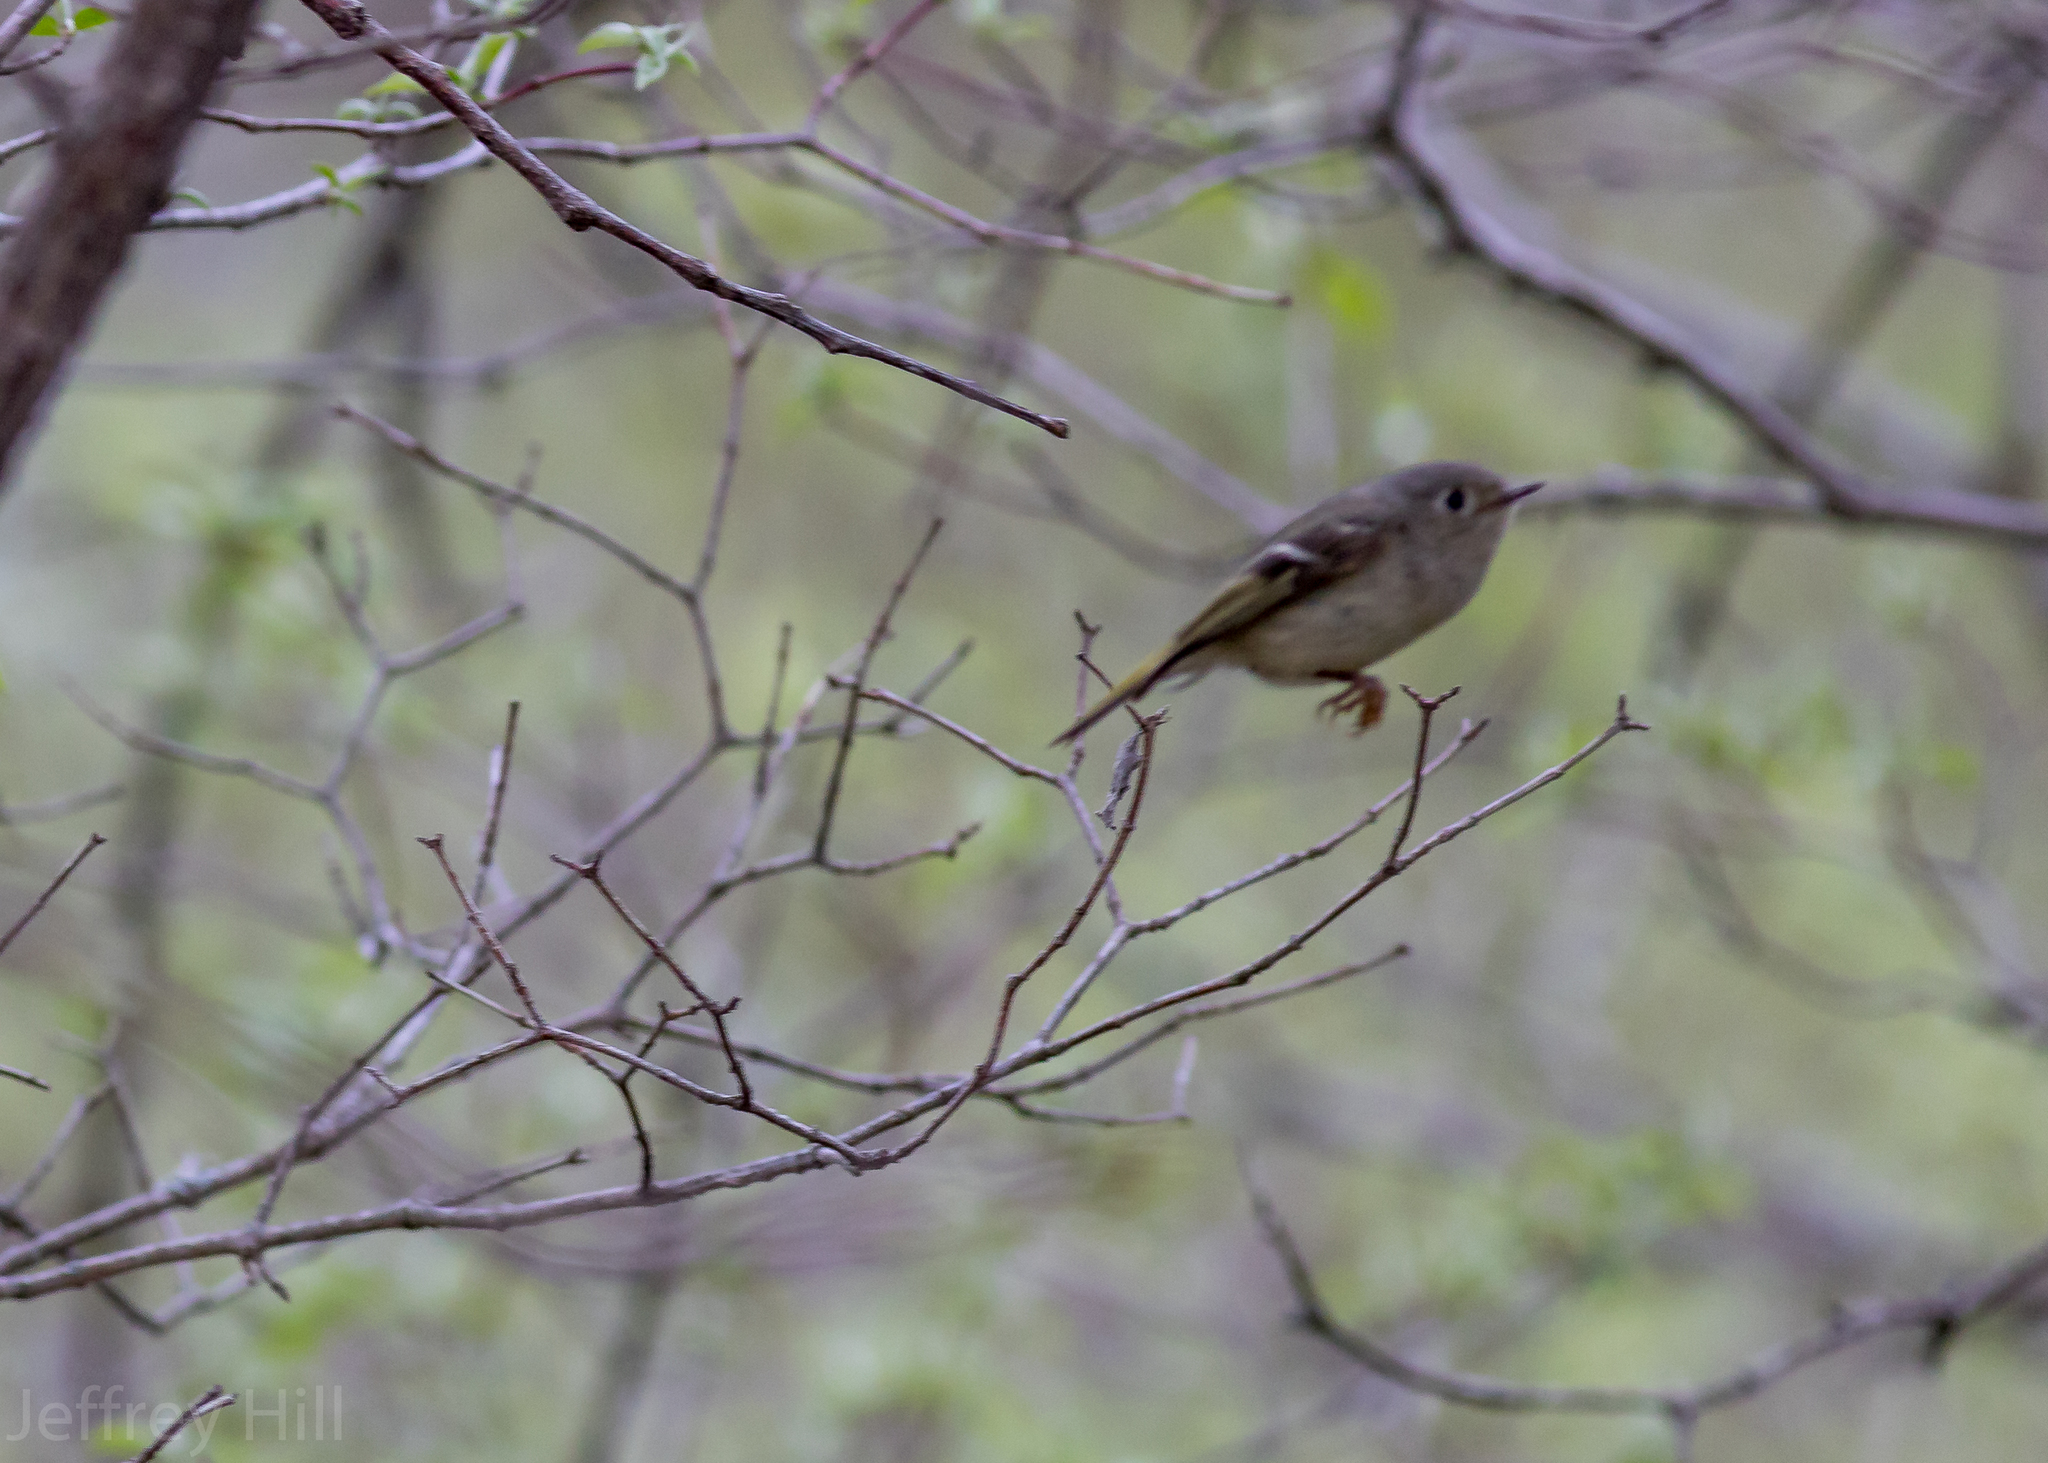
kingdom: Animalia
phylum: Chordata
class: Aves
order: Passeriformes
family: Regulidae
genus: Regulus
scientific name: Regulus calendula
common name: Ruby-crowned kinglet
